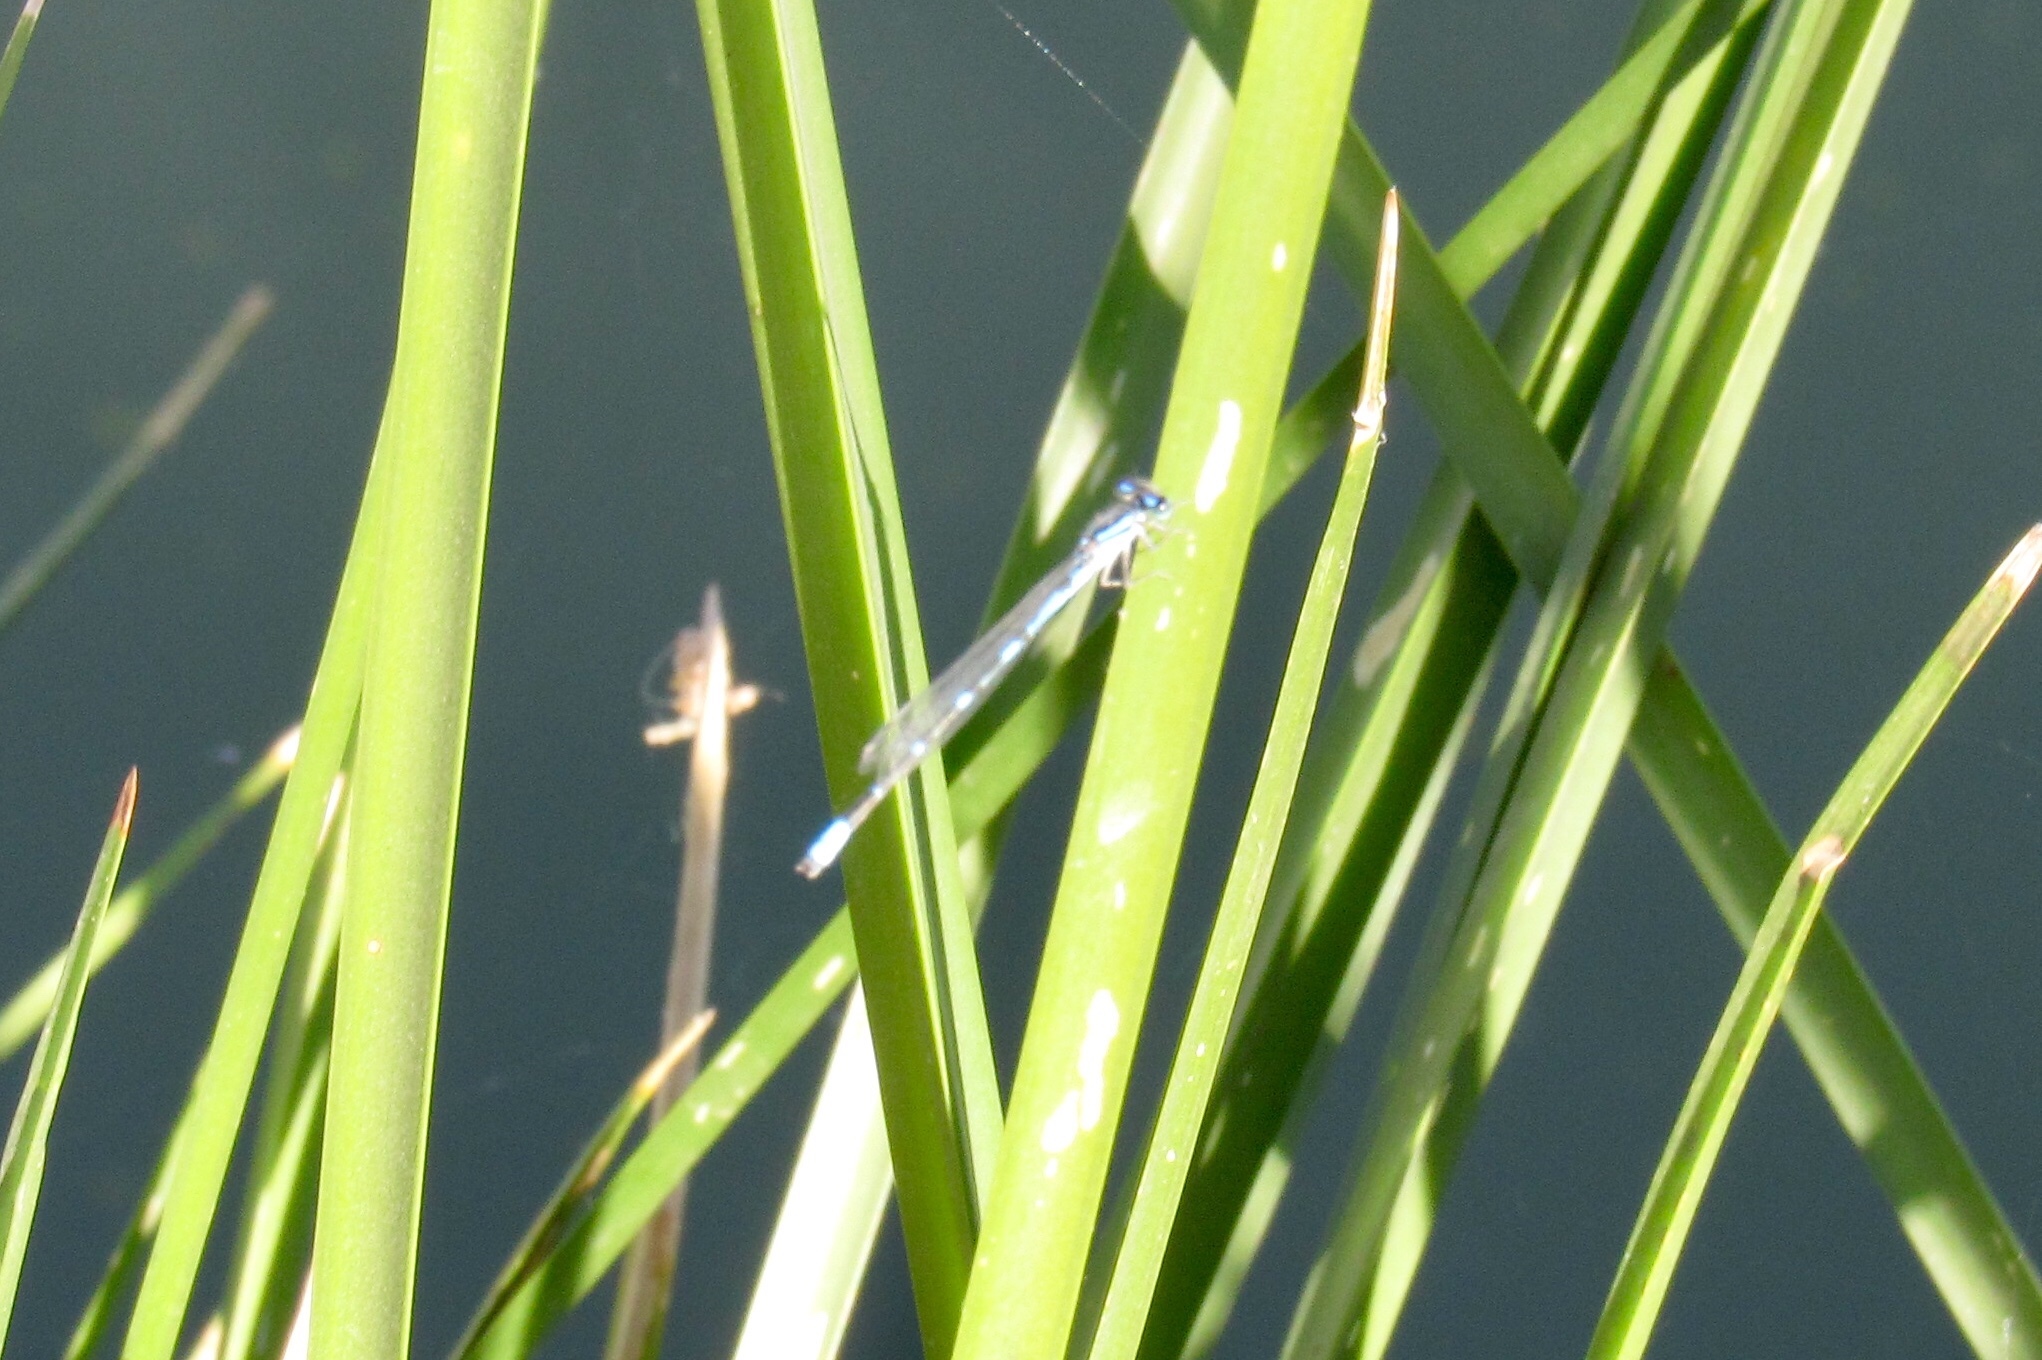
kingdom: Animalia
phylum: Arthropoda
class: Insecta
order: Odonata
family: Coenagrionidae
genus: Enallagma
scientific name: Enallagma civile
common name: Damselfly
